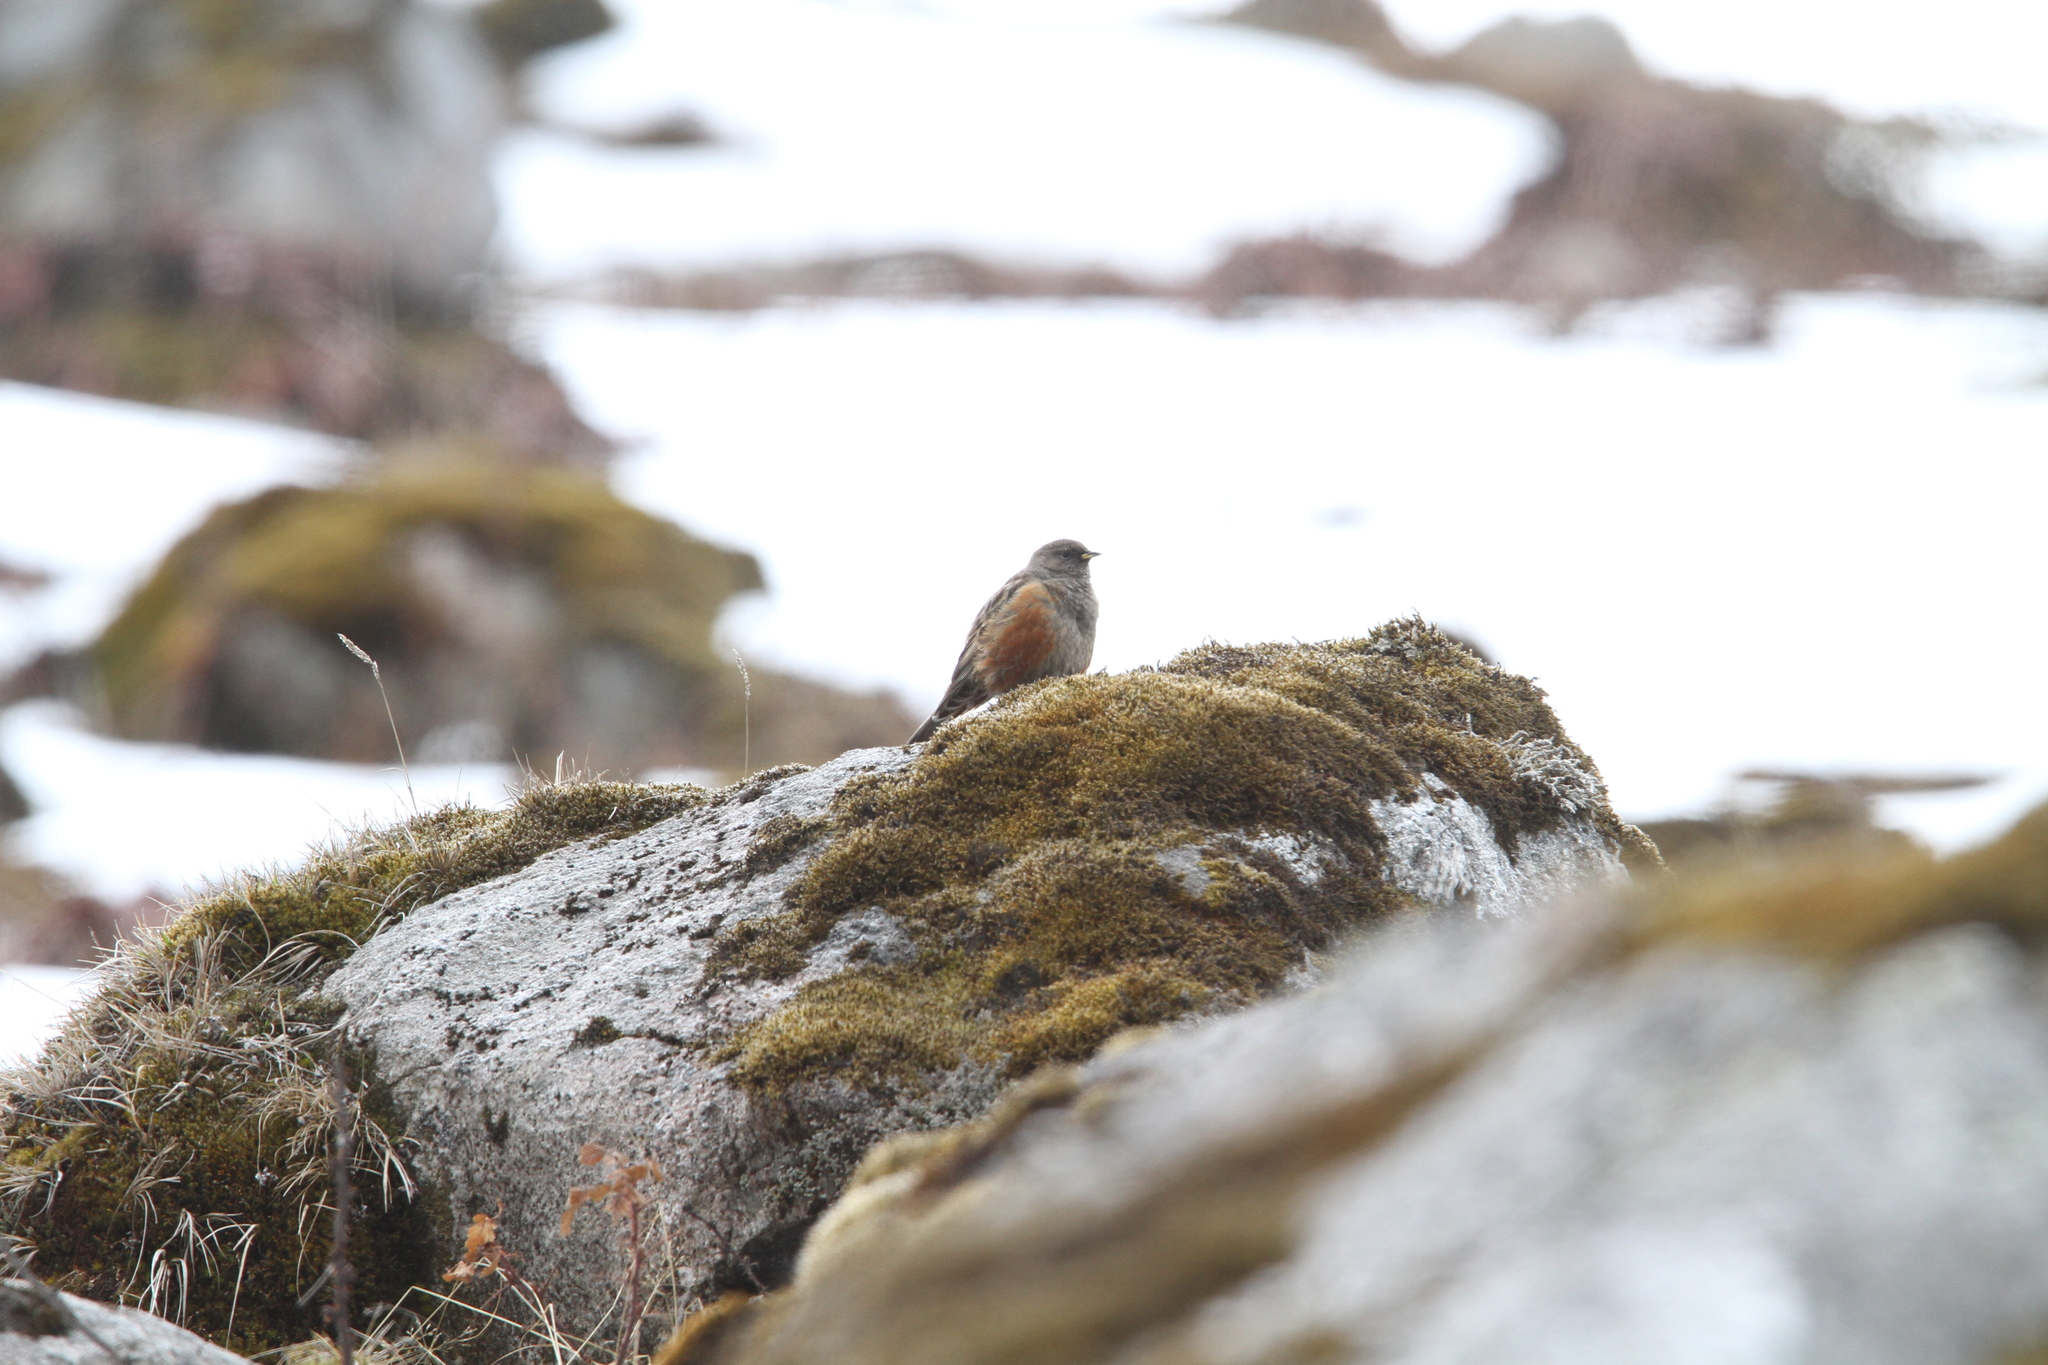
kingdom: Animalia
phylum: Chordata
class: Aves
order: Passeriformes
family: Prunellidae
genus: Prunella
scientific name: Prunella collaris
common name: Alpine accentor
